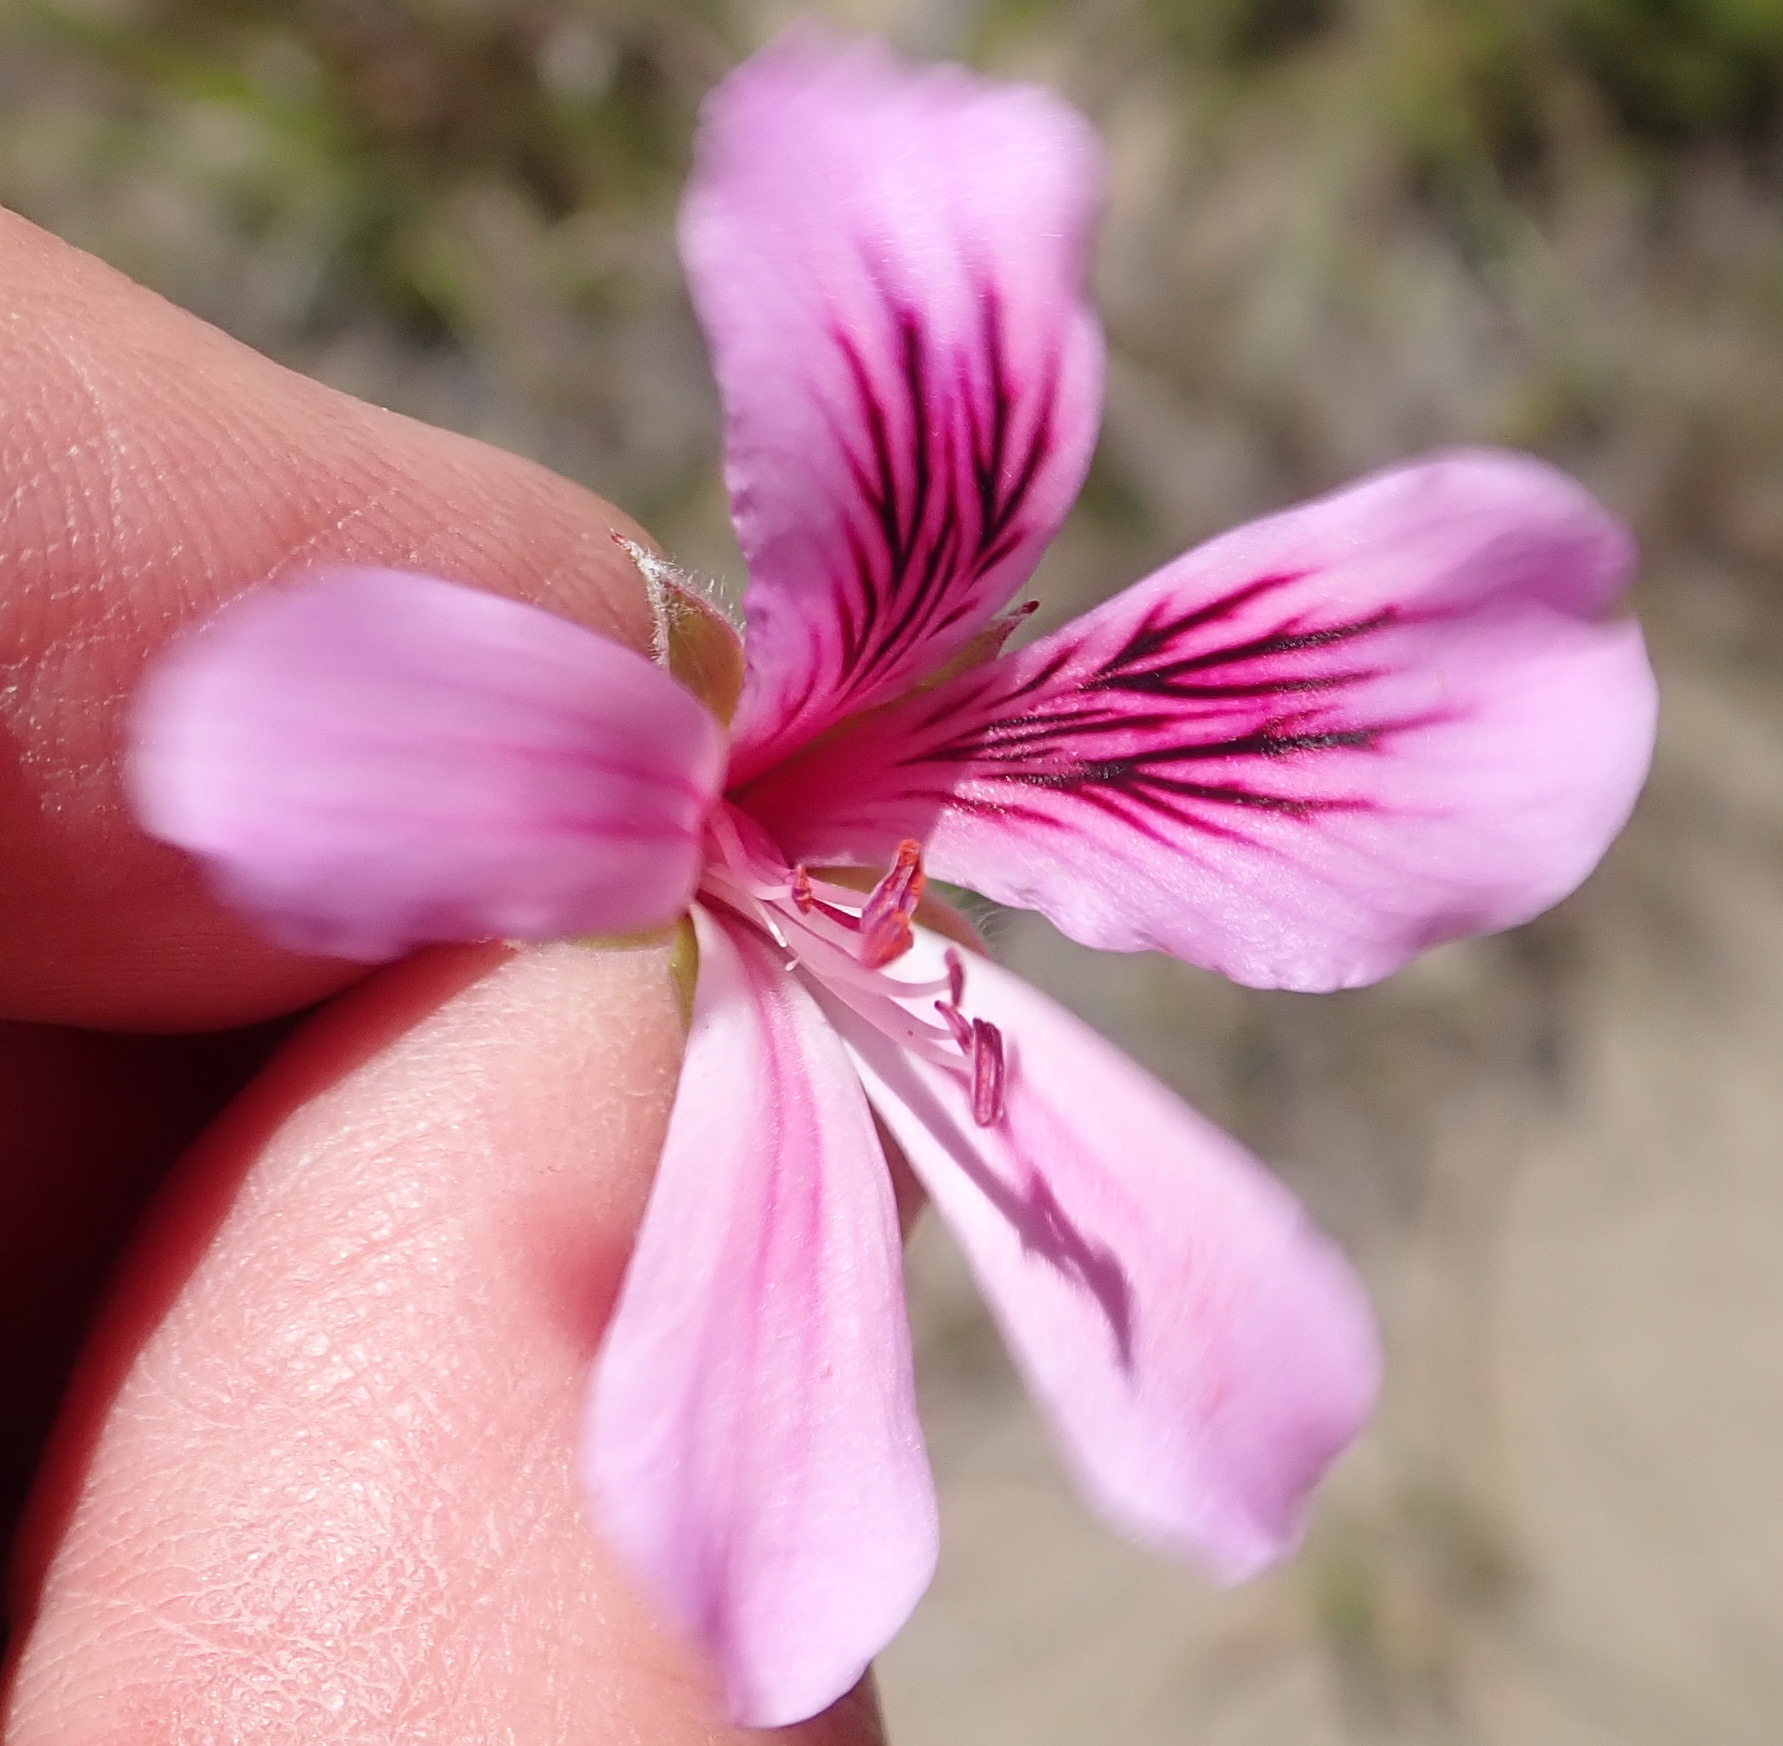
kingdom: Plantae
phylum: Tracheophyta
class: Magnoliopsida
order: Geraniales
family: Geraniaceae
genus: Pelargonium
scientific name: Pelargonium betulinum
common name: Birch-leaf pelargonium
